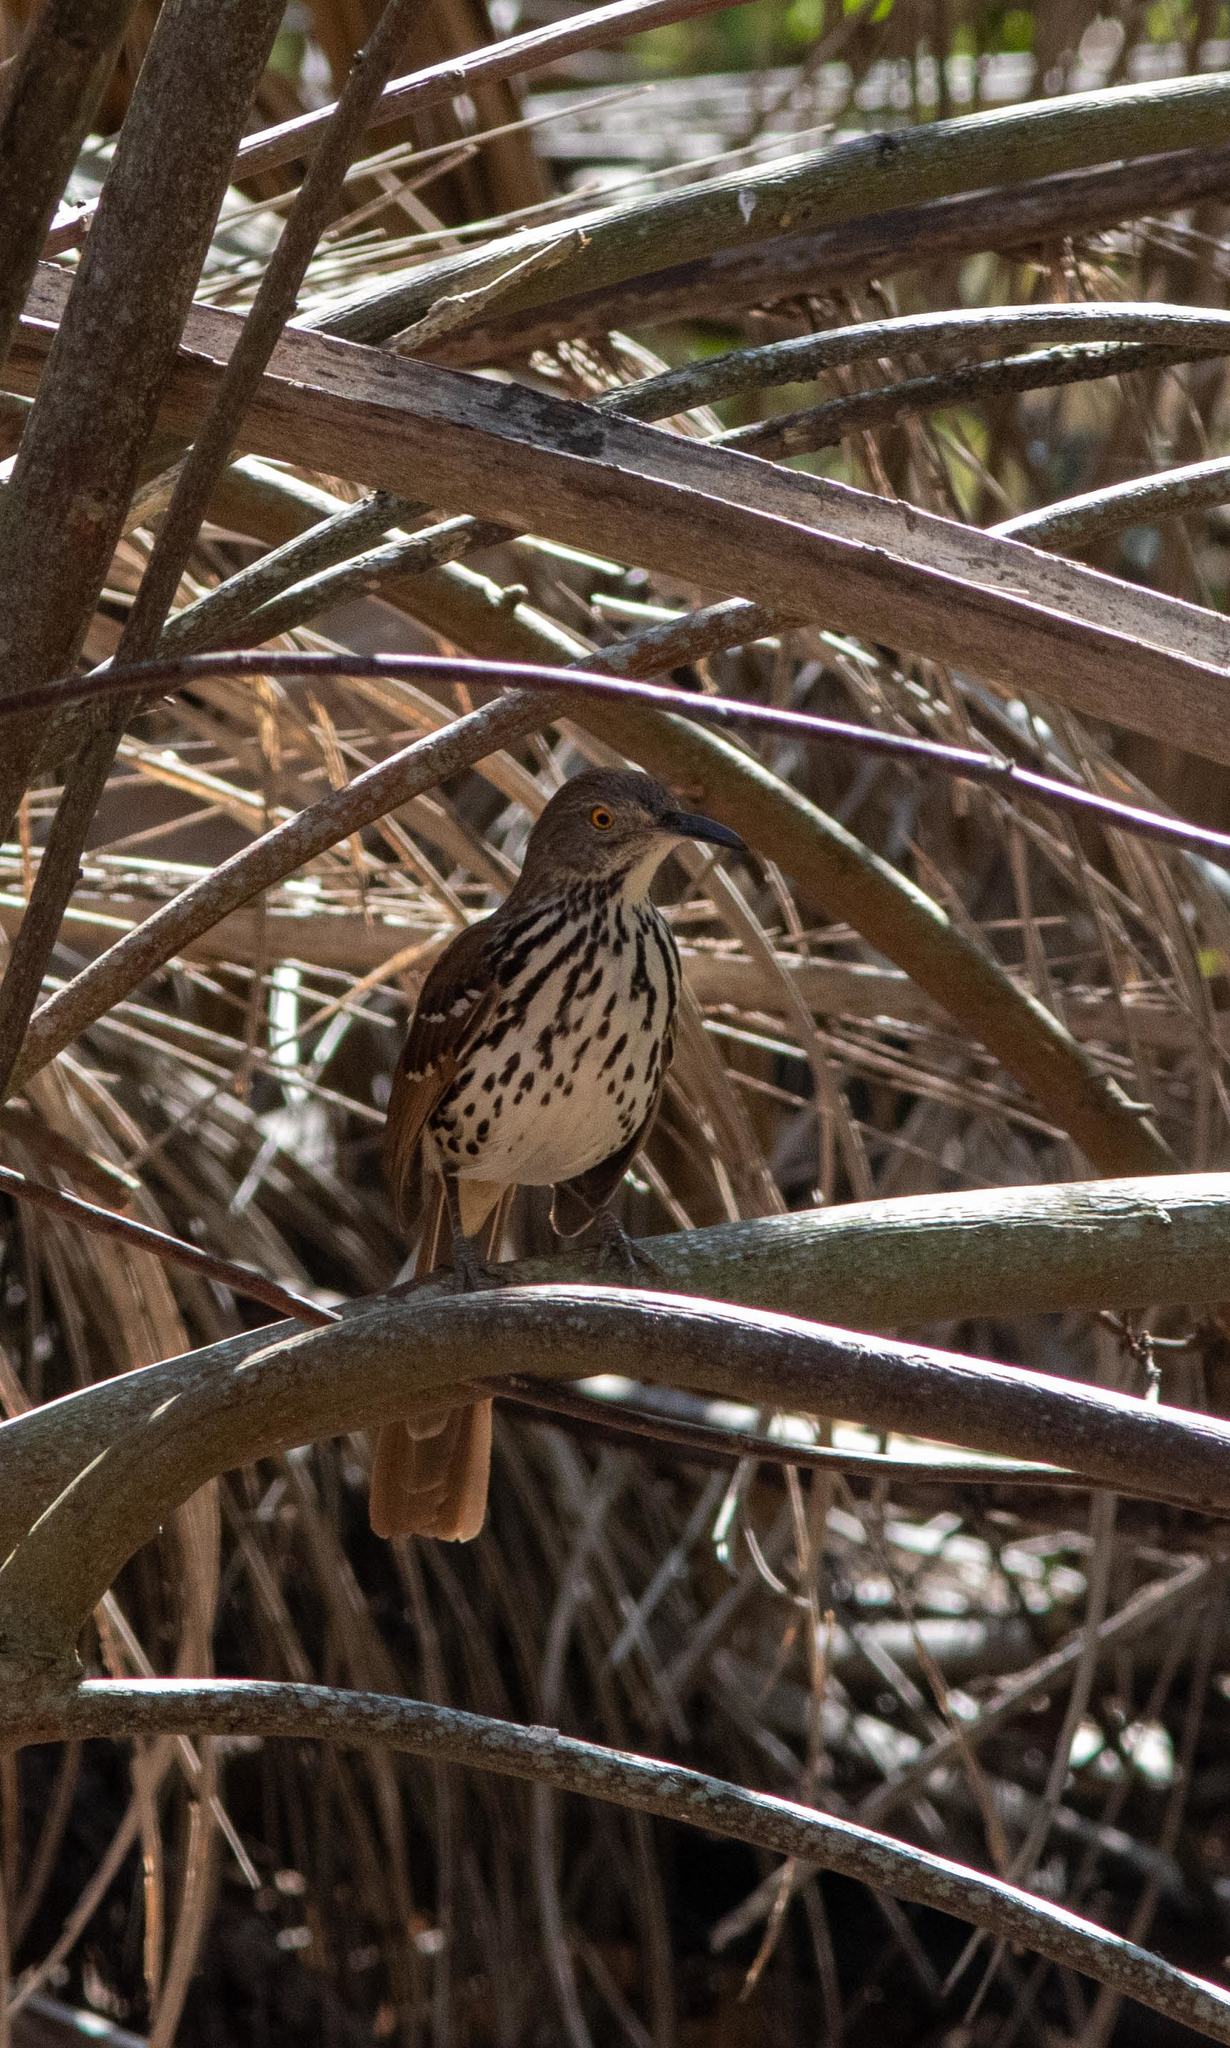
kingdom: Animalia
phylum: Chordata
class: Aves
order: Passeriformes
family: Mimidae
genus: Toxostoma
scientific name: Toxostoma longirostre
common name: Long-billed thrasher
